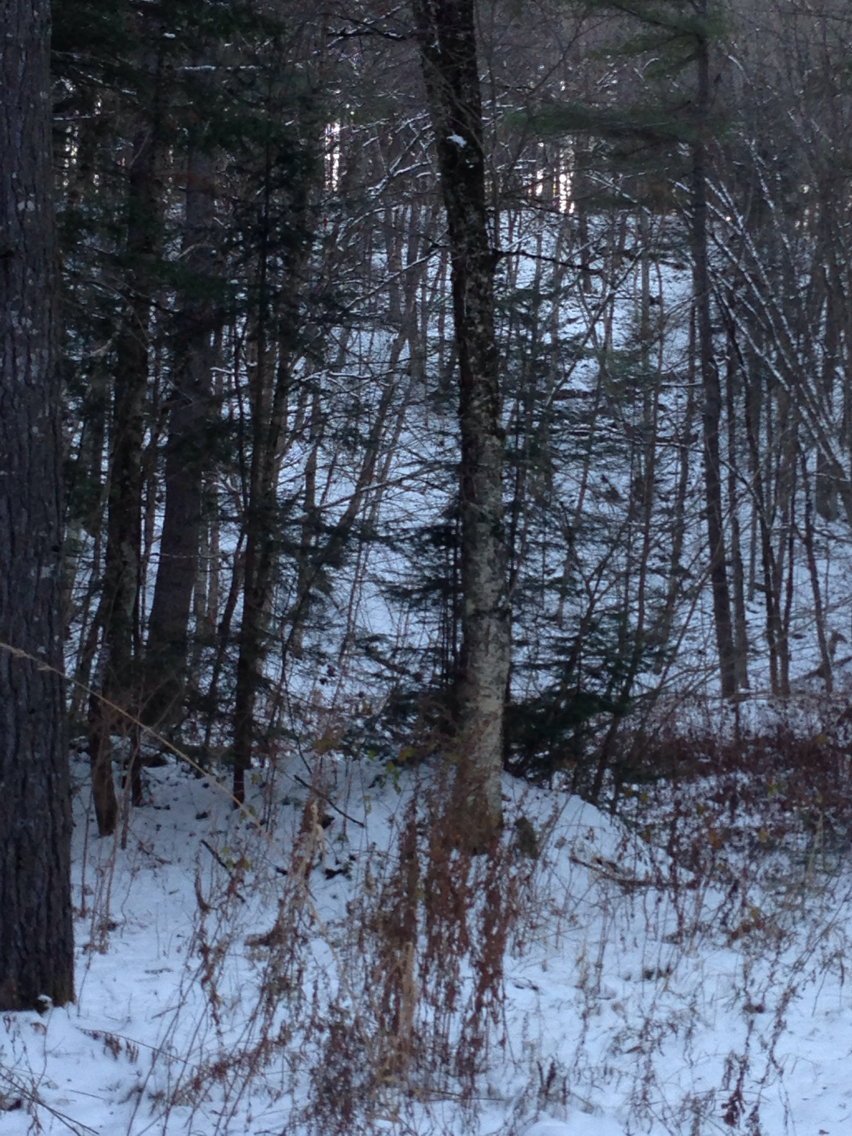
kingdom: Plantae
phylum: Tracheophyta
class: Magnoliopsida
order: Fagales
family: Betulaceae
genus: Betula
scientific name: Betula alleghaniensis
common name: Yellow birch
